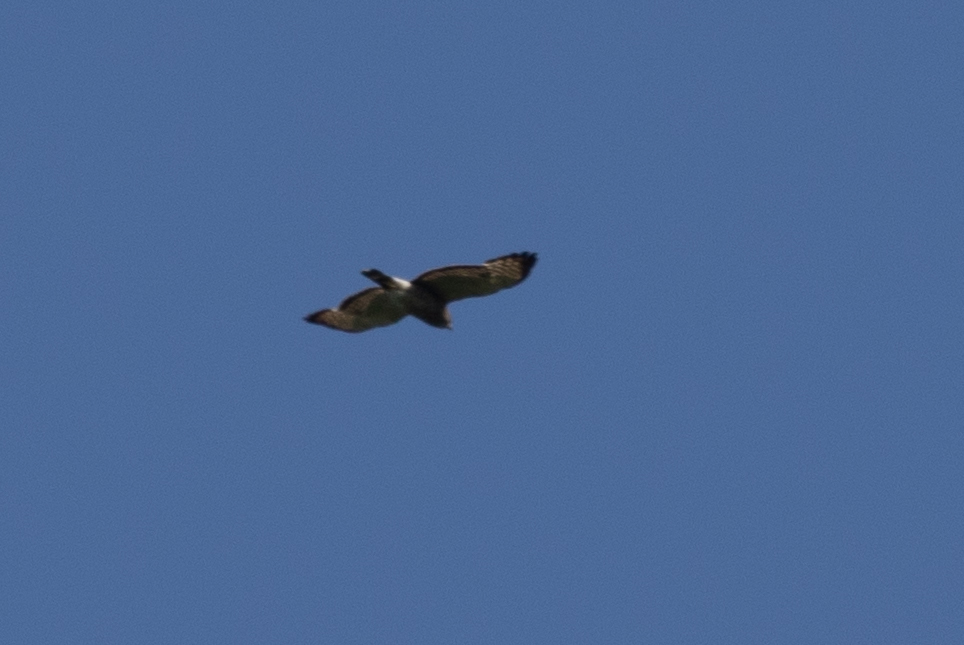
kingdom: Animalia
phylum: Chordata
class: Aves
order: Accipitriformes
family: Accipitridae
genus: Buteo
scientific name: Buteo platypterus
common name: Broad-winged hawk
